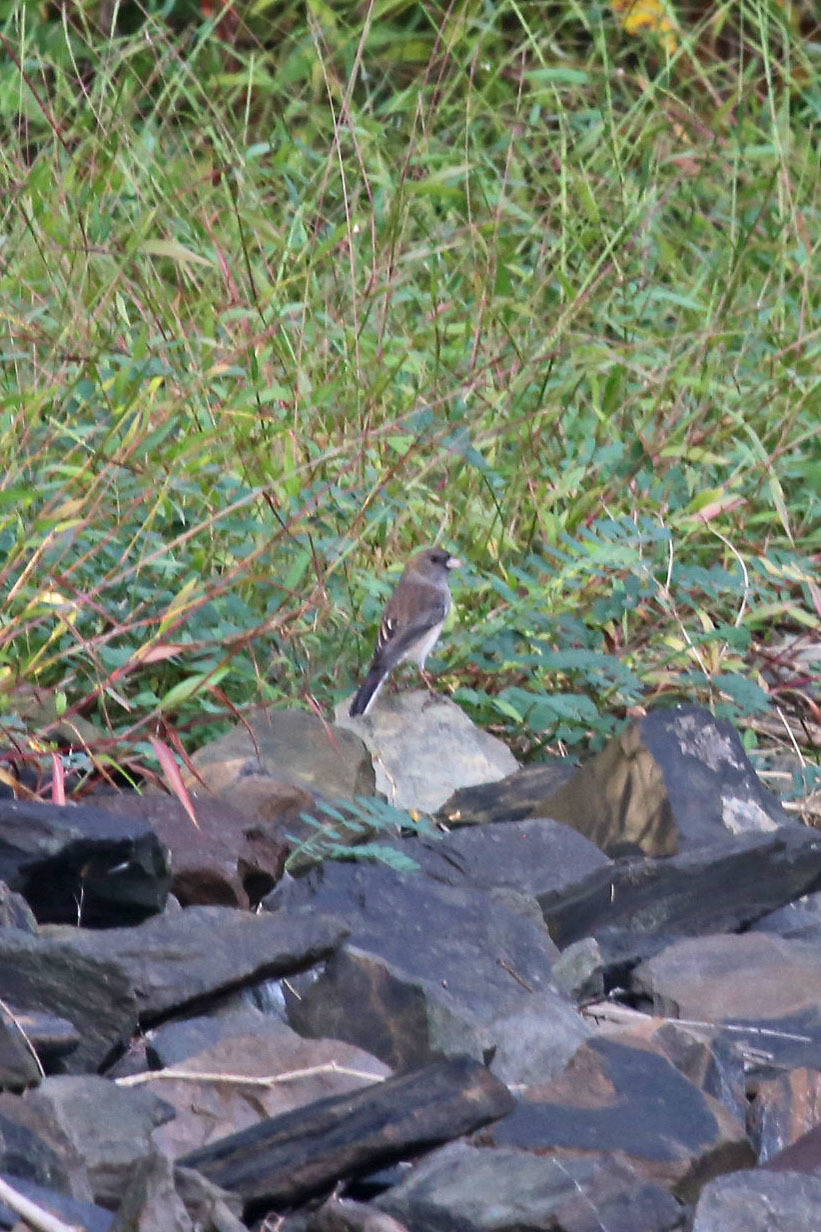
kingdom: Animalia
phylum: Chordata
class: Aves
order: Passeriformes
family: Passerellidae
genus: Junco
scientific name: Junco hyemalis
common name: Dark-eyed junco
